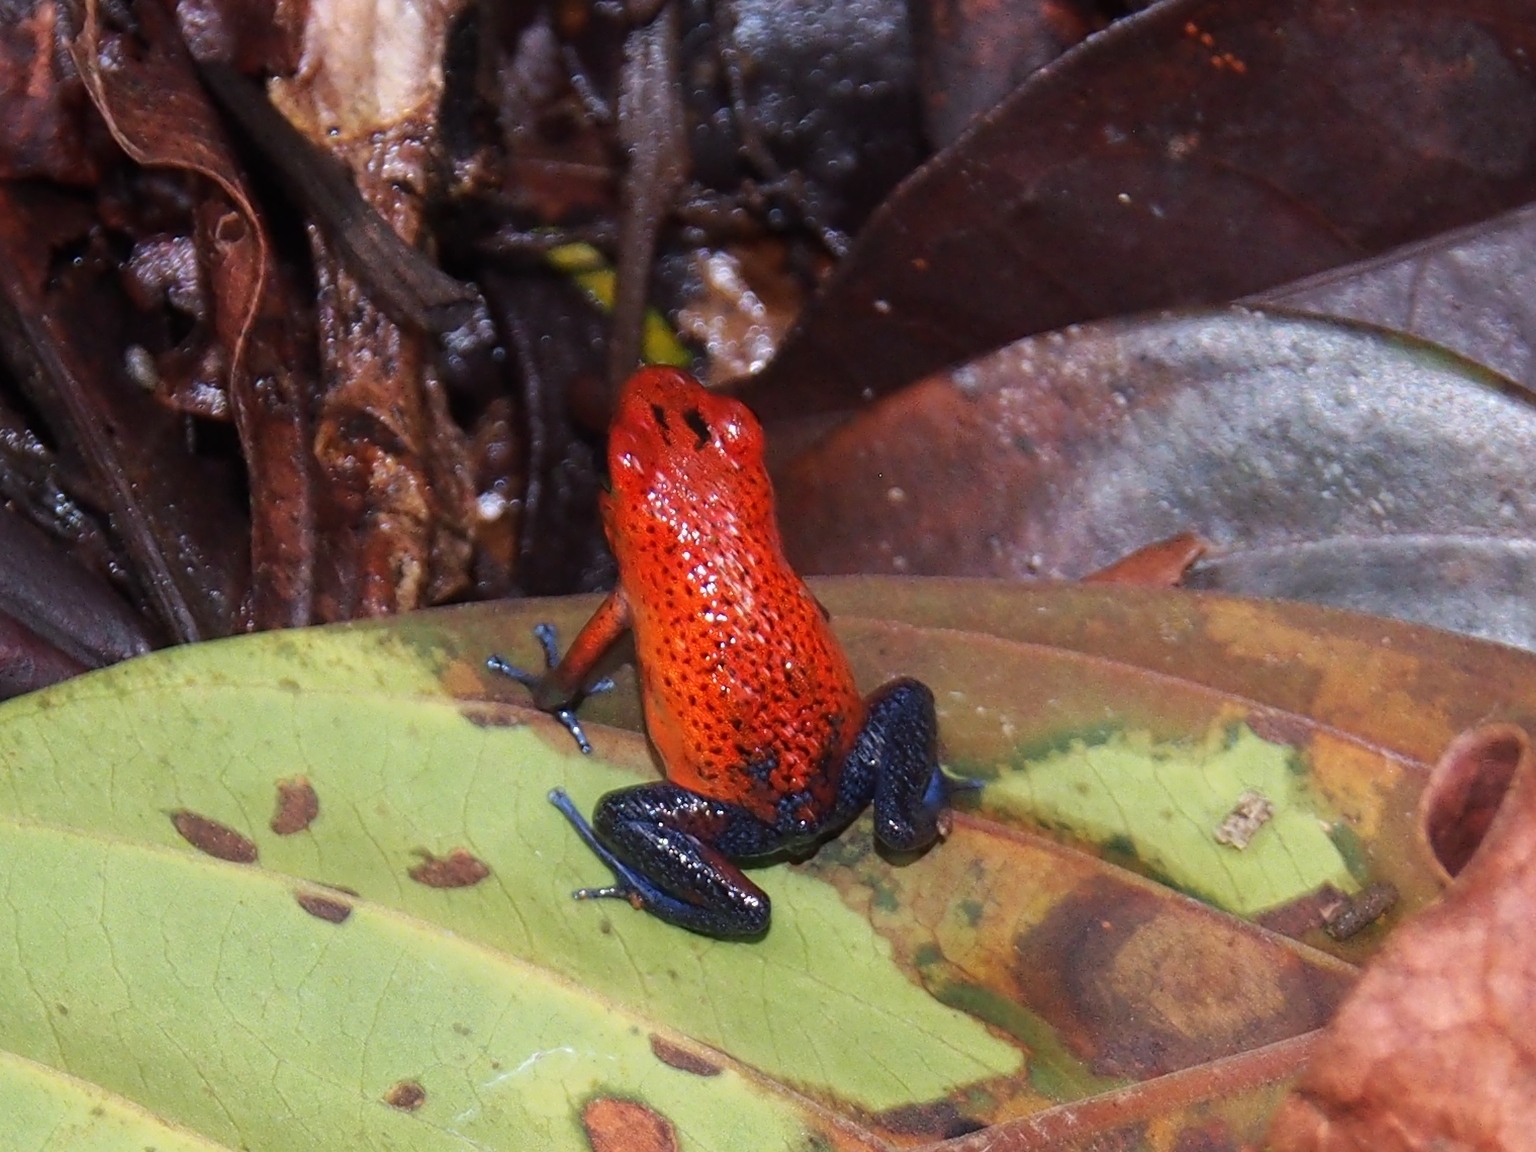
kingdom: Animalia
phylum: Chordata
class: Amphibia
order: Anura
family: Dendrobatidae
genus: Oophaga
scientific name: Oophaga pumilio
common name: Flaming poison frog
